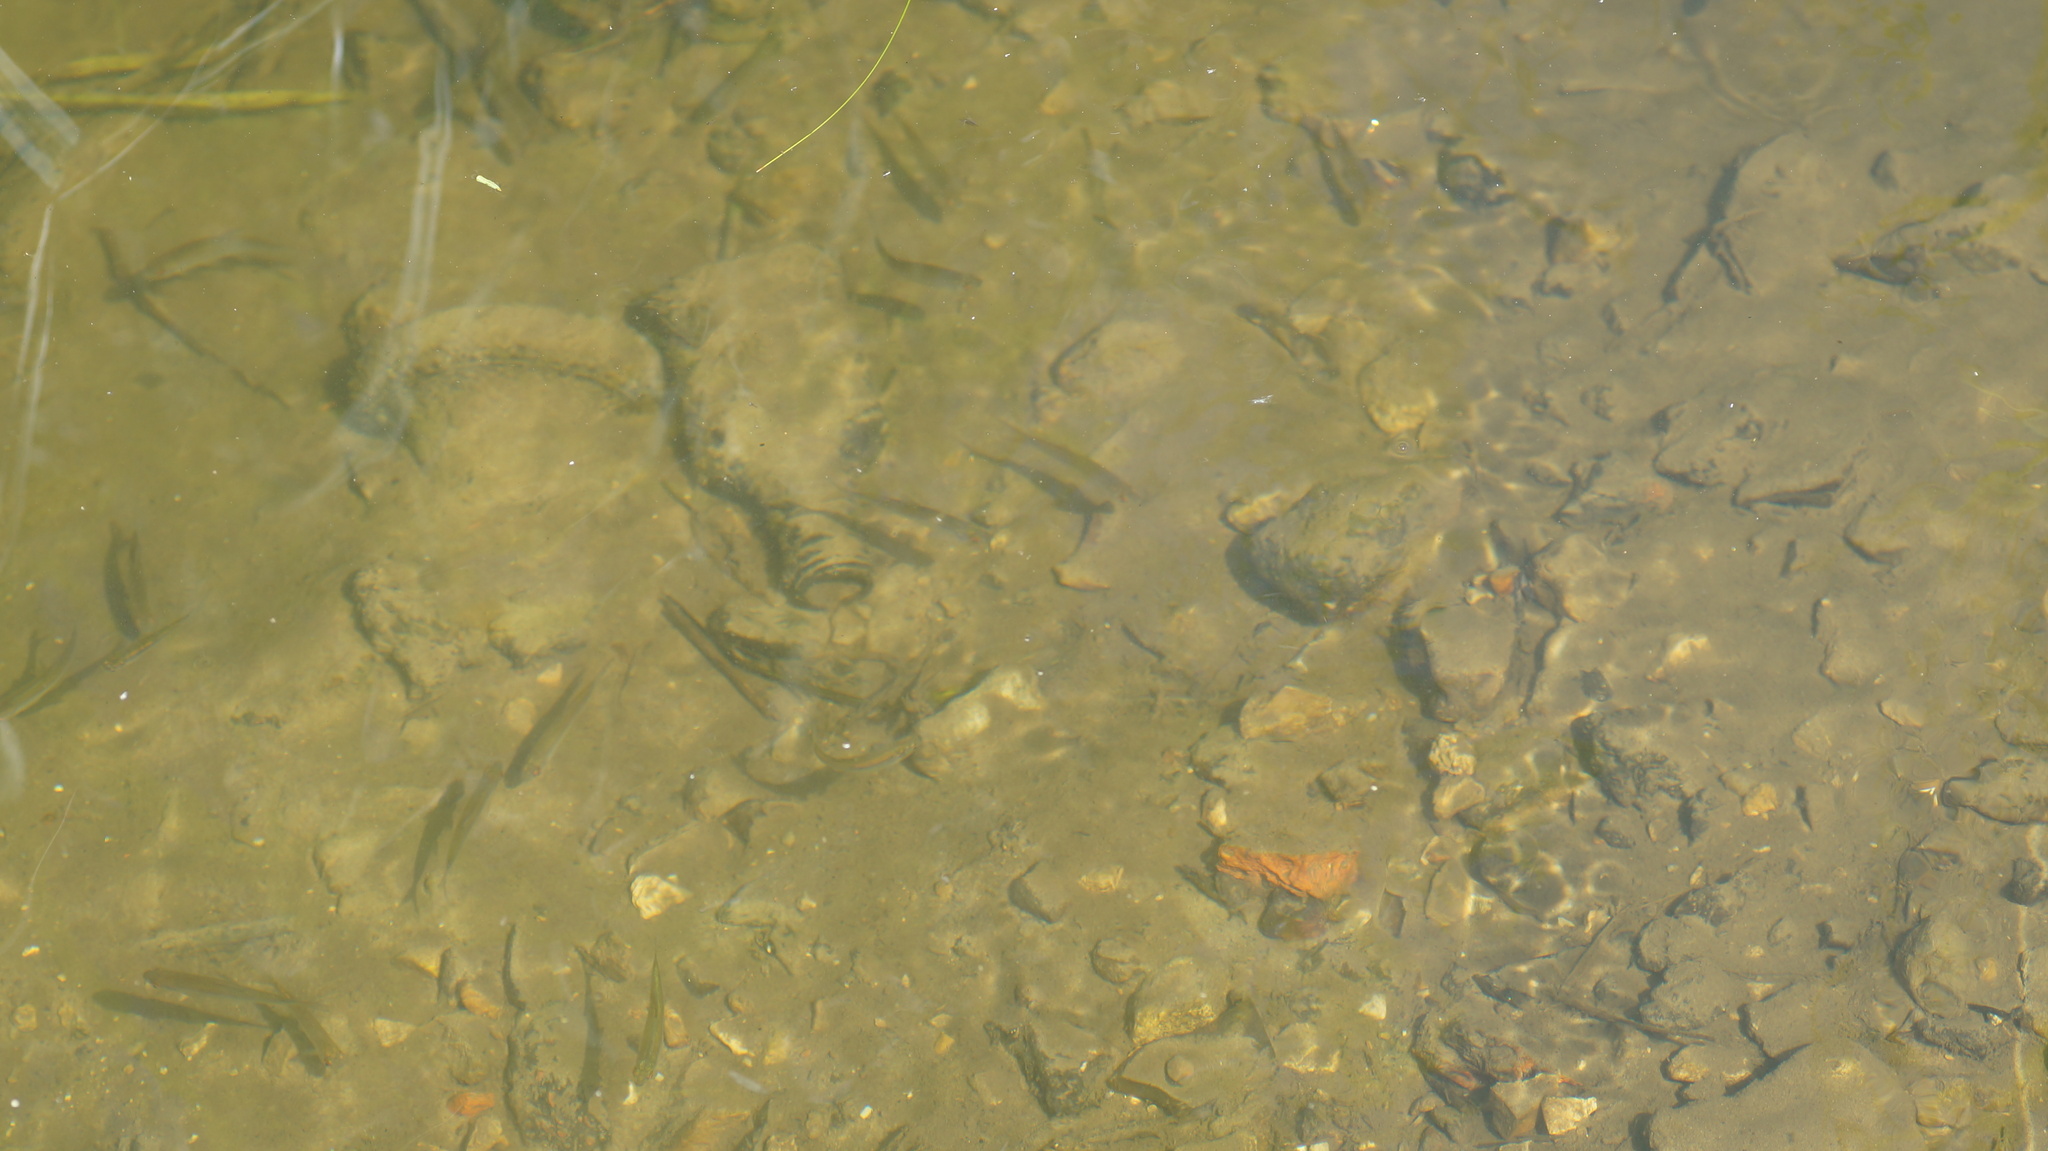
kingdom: Animalia
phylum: Chordata
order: Cypriniformes
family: Cyprinidae
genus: Rutilus
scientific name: Rutilus rutilus
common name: Roach
